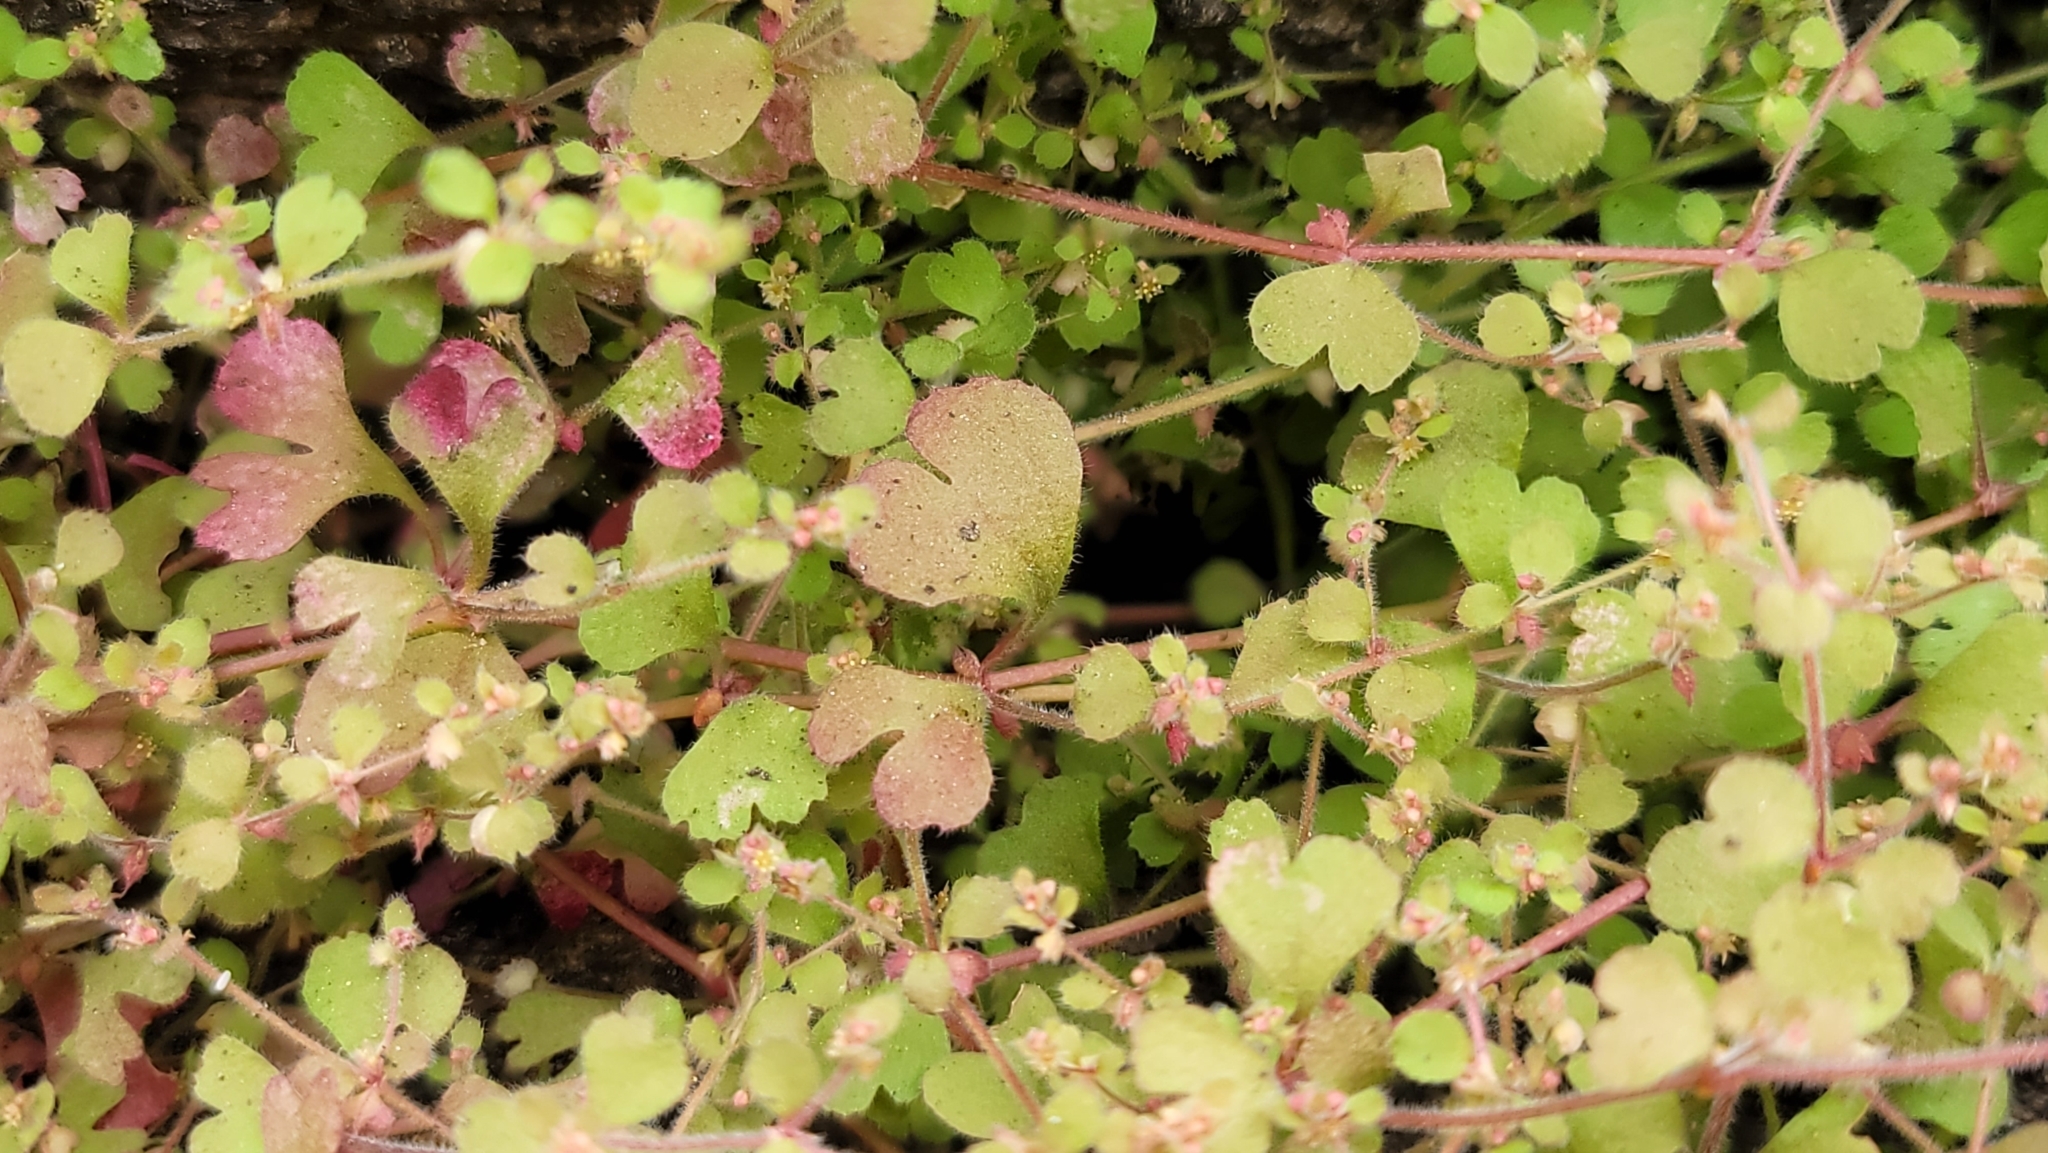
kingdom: Plantae
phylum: Tracheophyta
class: Magnoliopsida
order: Caryophyllales
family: Polygonaceae
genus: Pterostegia
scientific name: Pterostegia drymarioides
